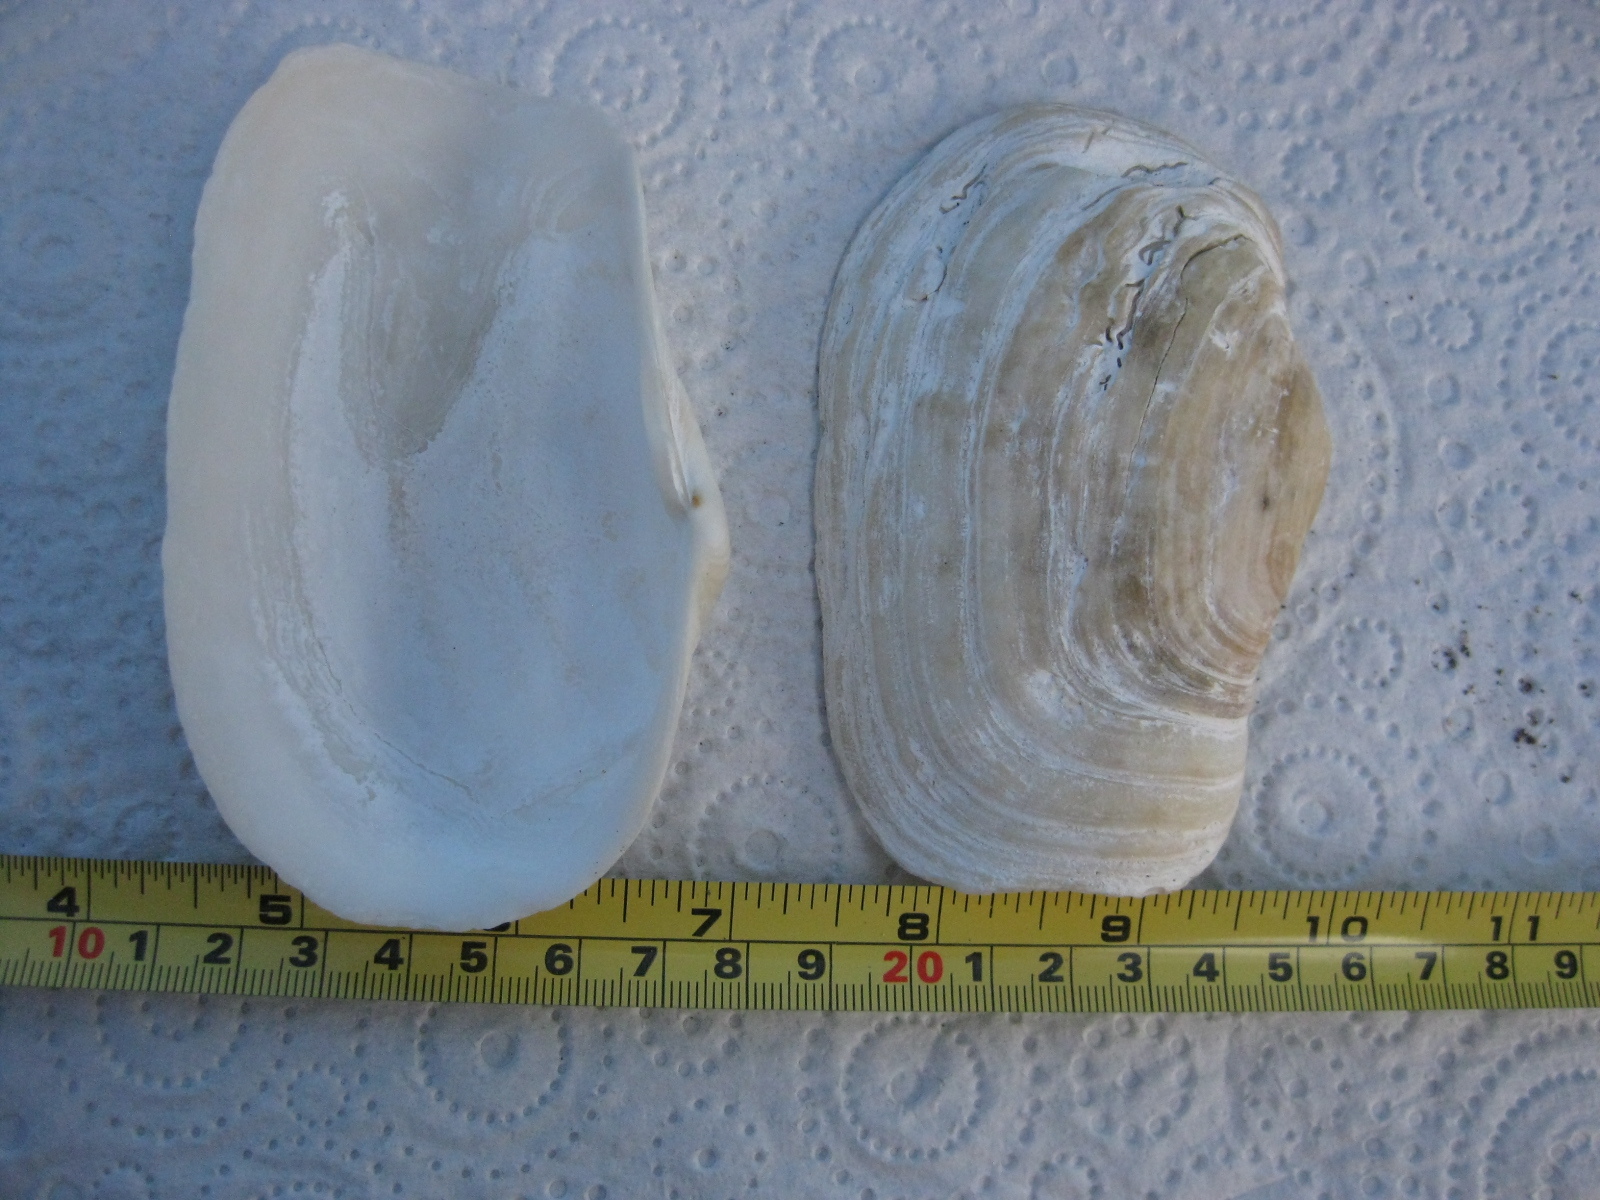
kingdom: Animalia
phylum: Mollusca
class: Bivalvia
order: Adapedonta
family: Hiatellidae
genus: Panopea
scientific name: Panopea zelandica
